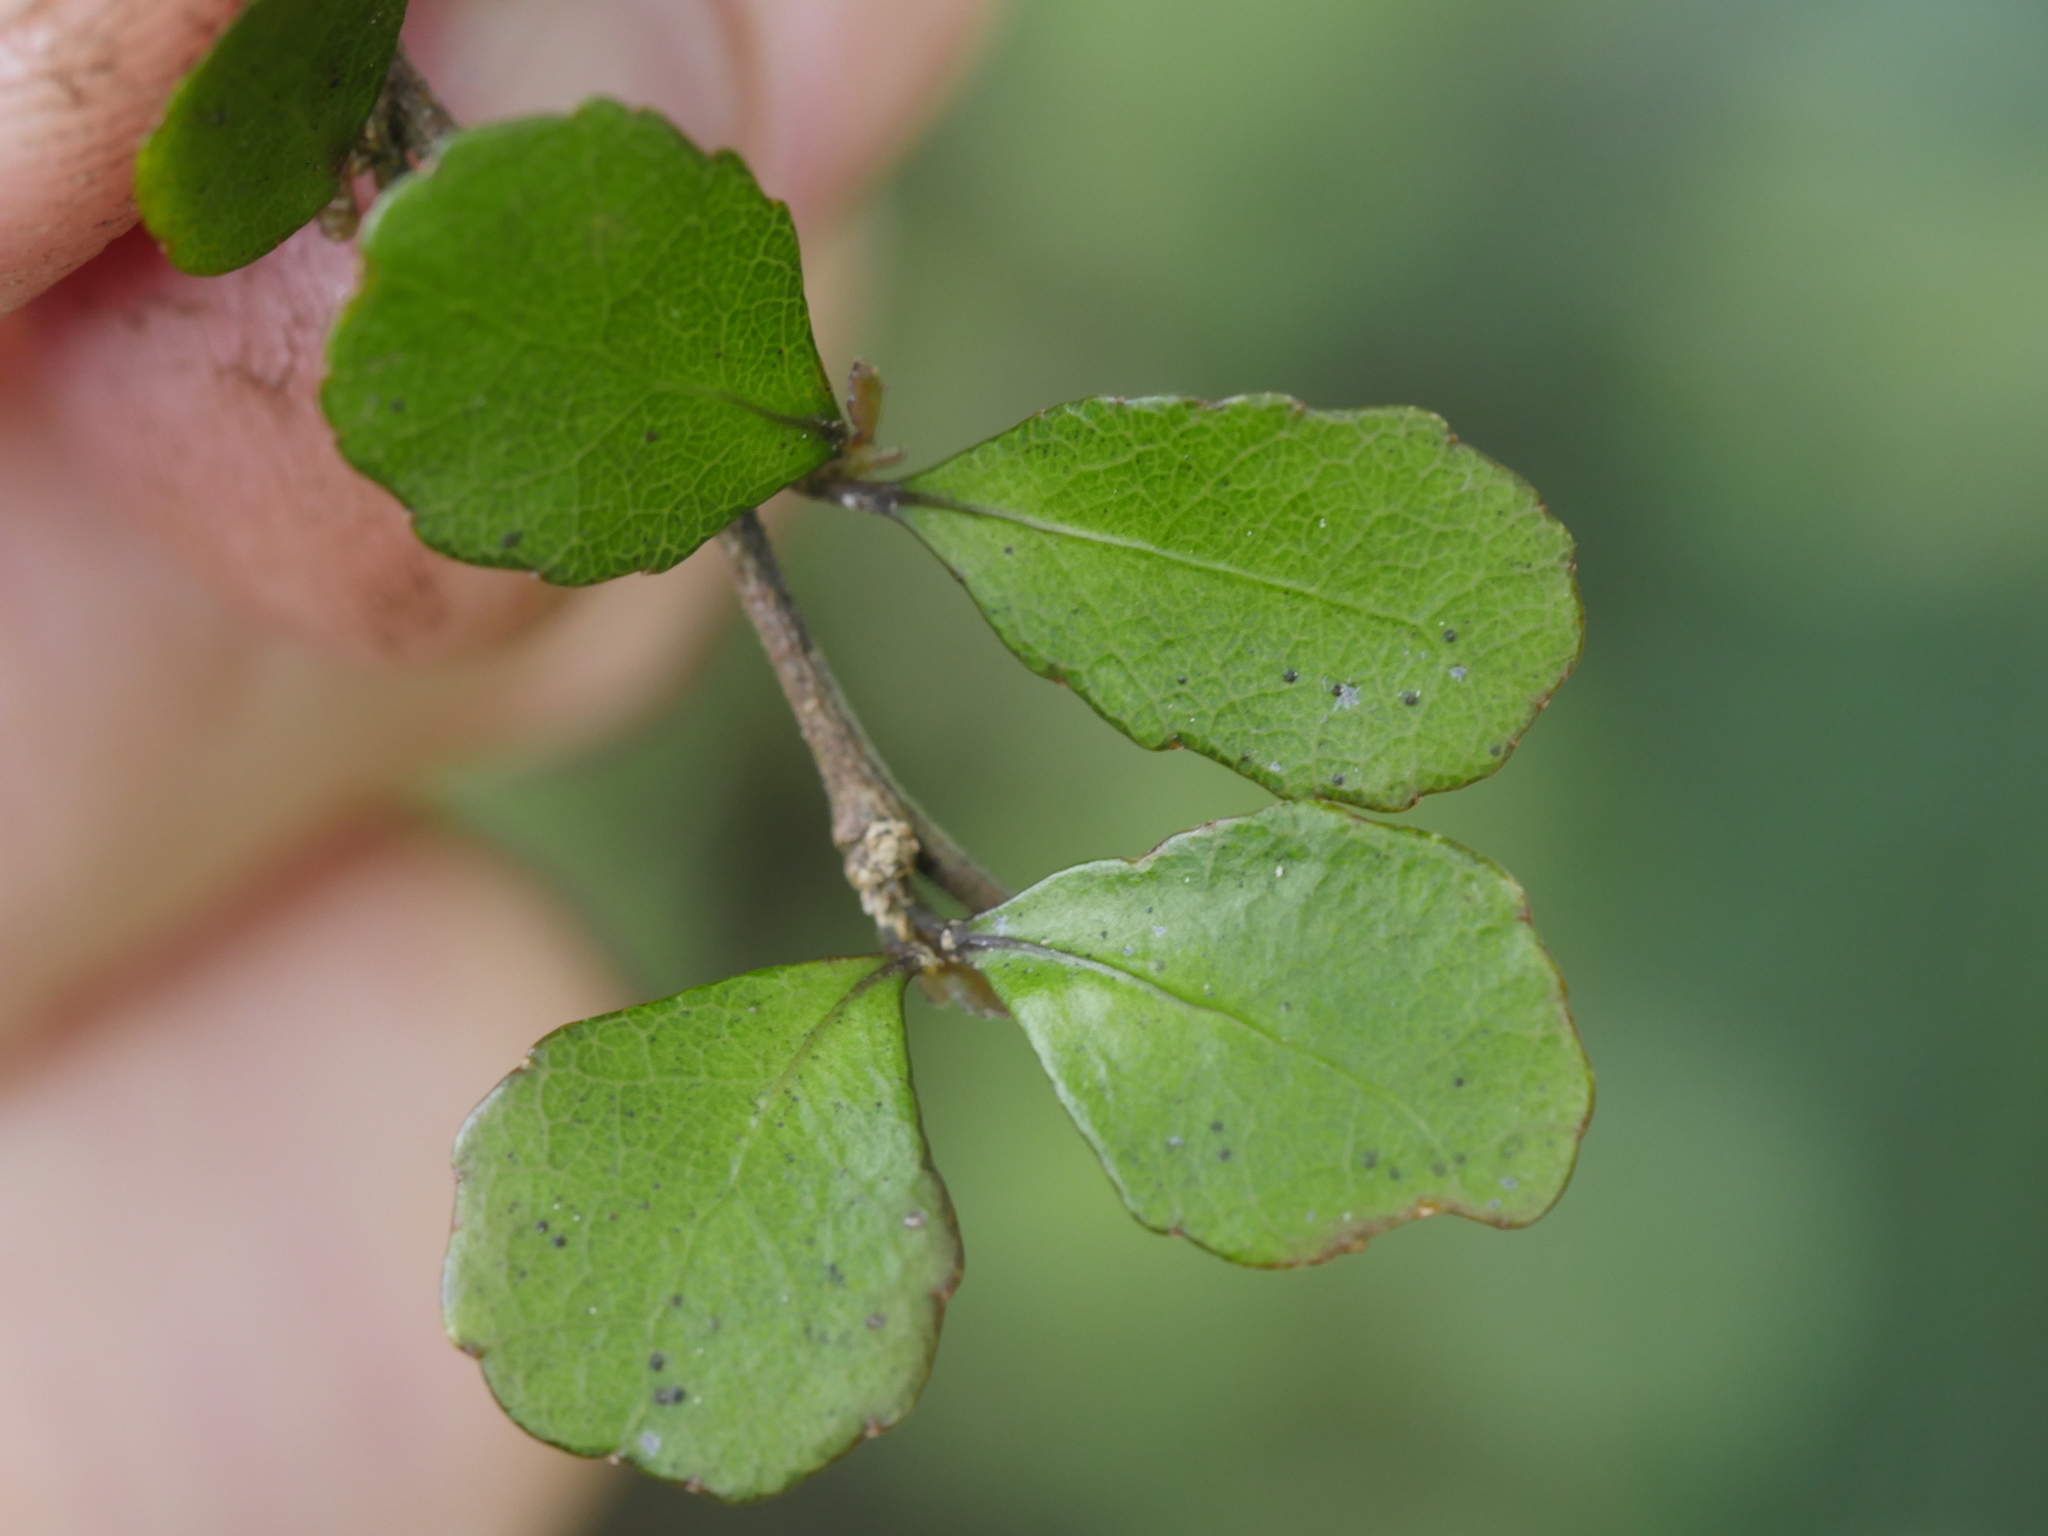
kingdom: Plantae
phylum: Tracheophyta
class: Magnoliopsida
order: Malpighiales
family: Violaceae
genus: Melicytus
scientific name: Melicytus micranthus
